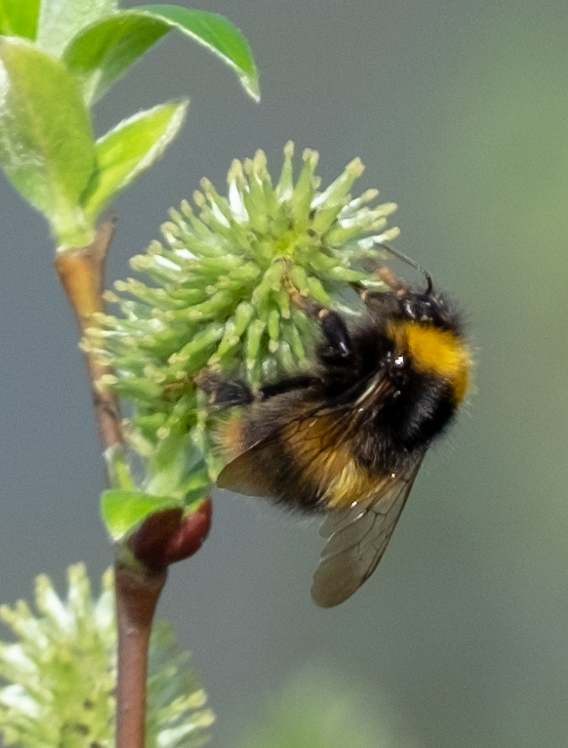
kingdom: Animalia
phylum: Arthropoda
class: Insecta
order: Hymenoptera
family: Apidae
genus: Bombus
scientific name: Bombus pratorum
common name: Early humble-bee
